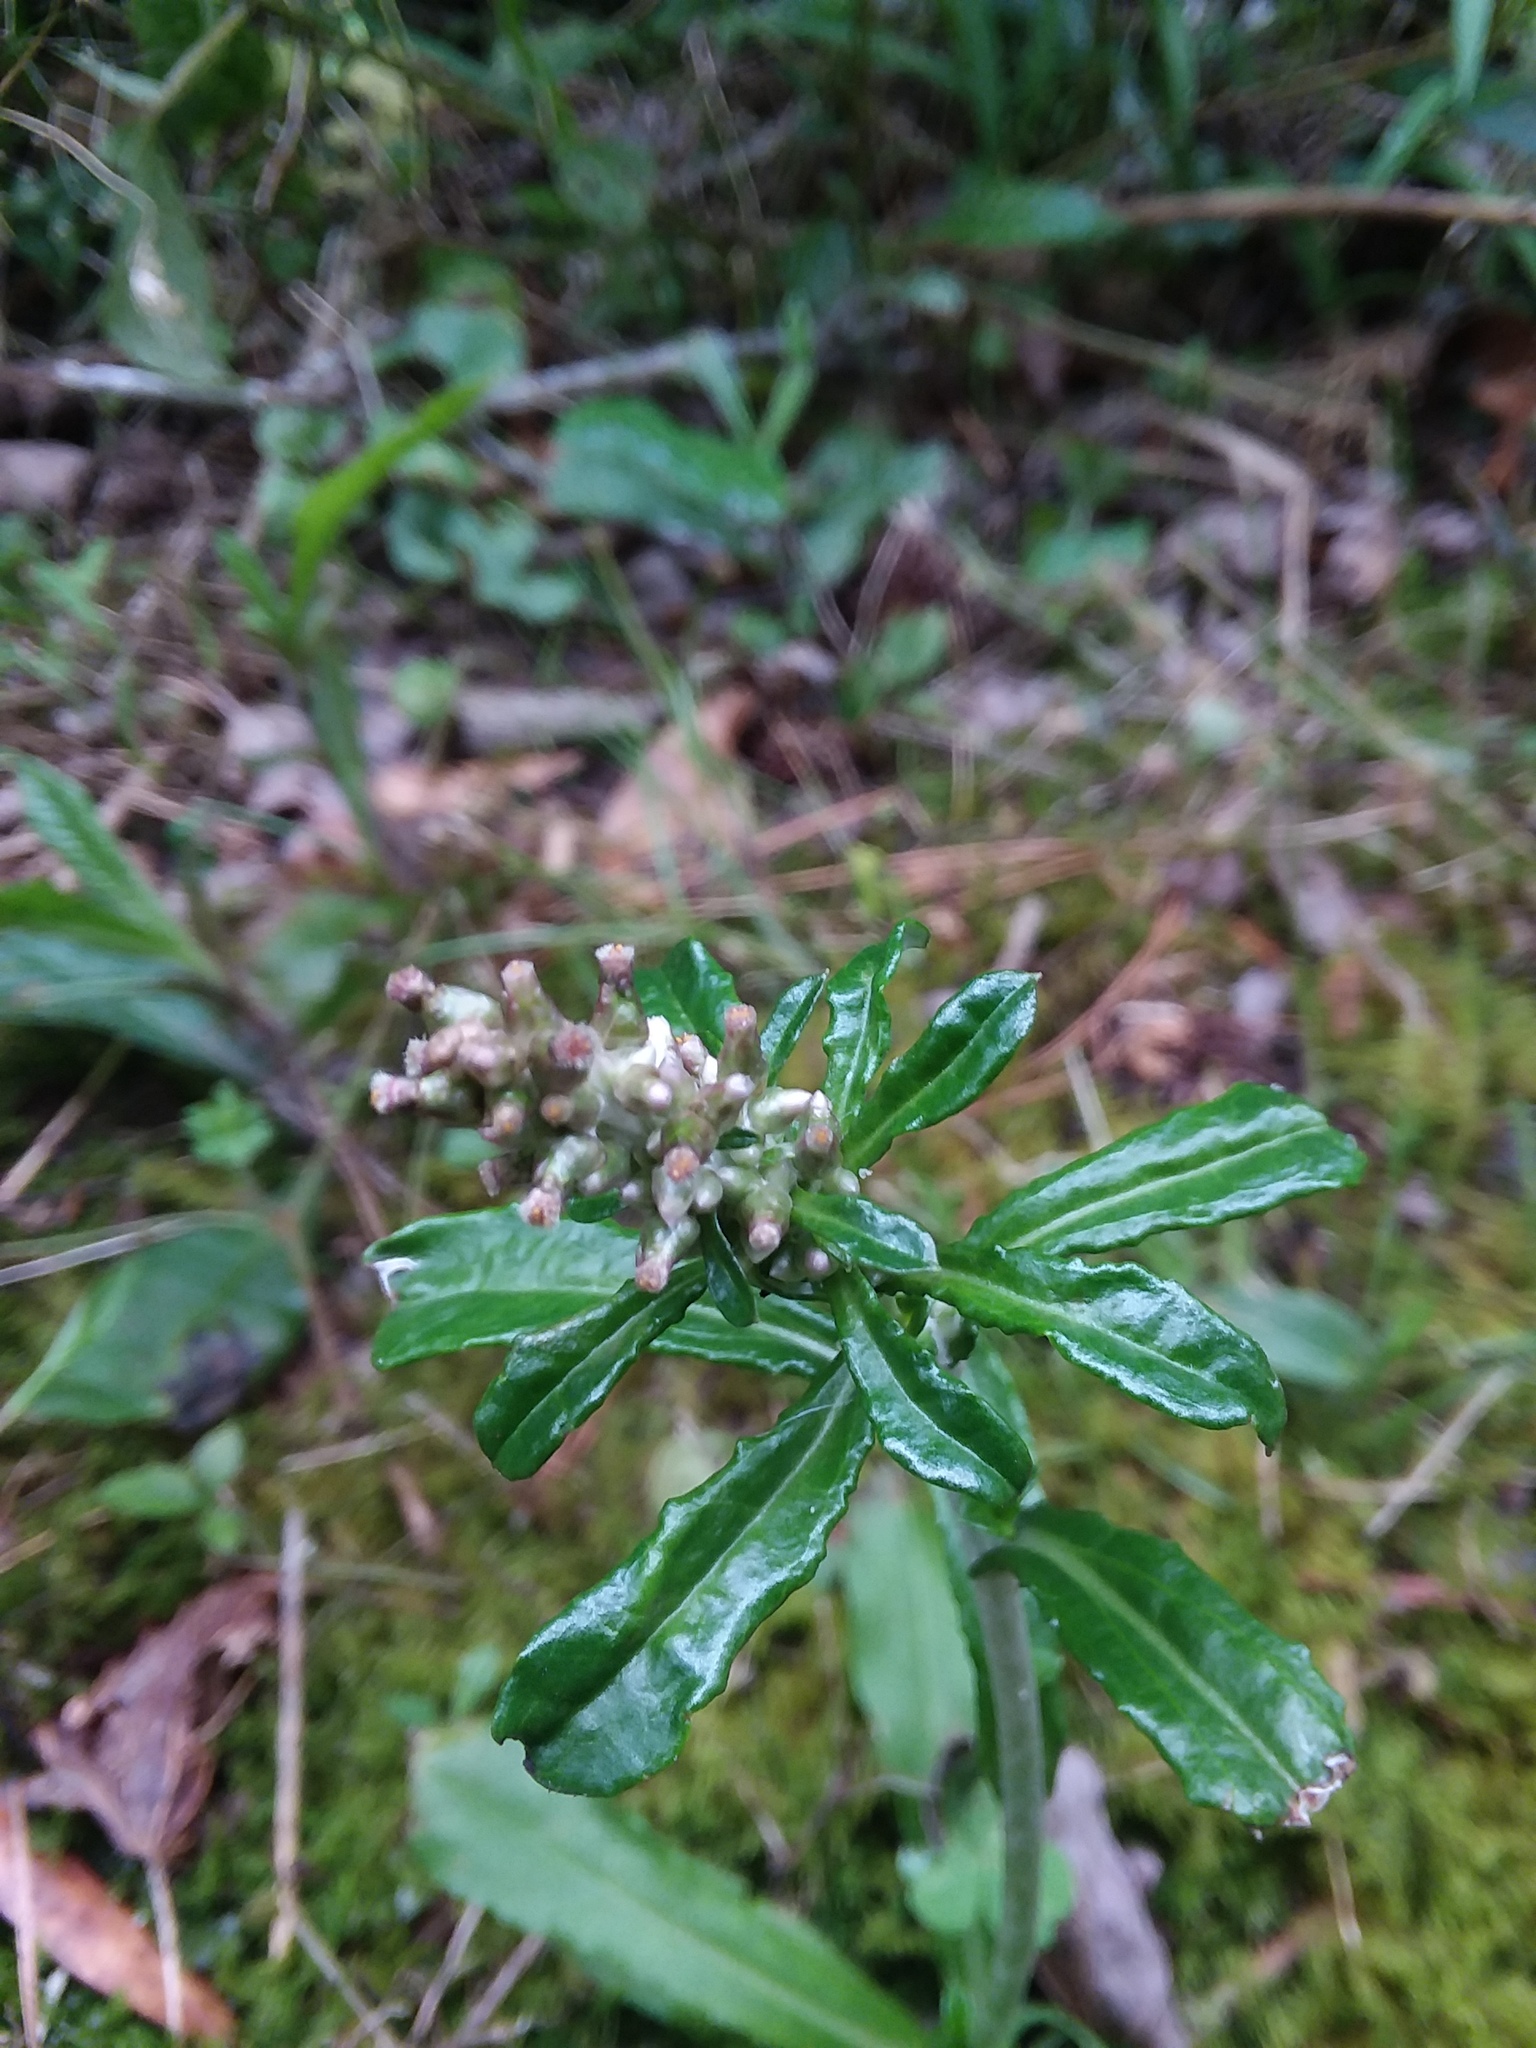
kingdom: Plantae
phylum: Tracheophyta
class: Magnoliopsida
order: Asterales
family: Asteraceae
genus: Gamochaeta
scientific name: Gamochaeta americana
